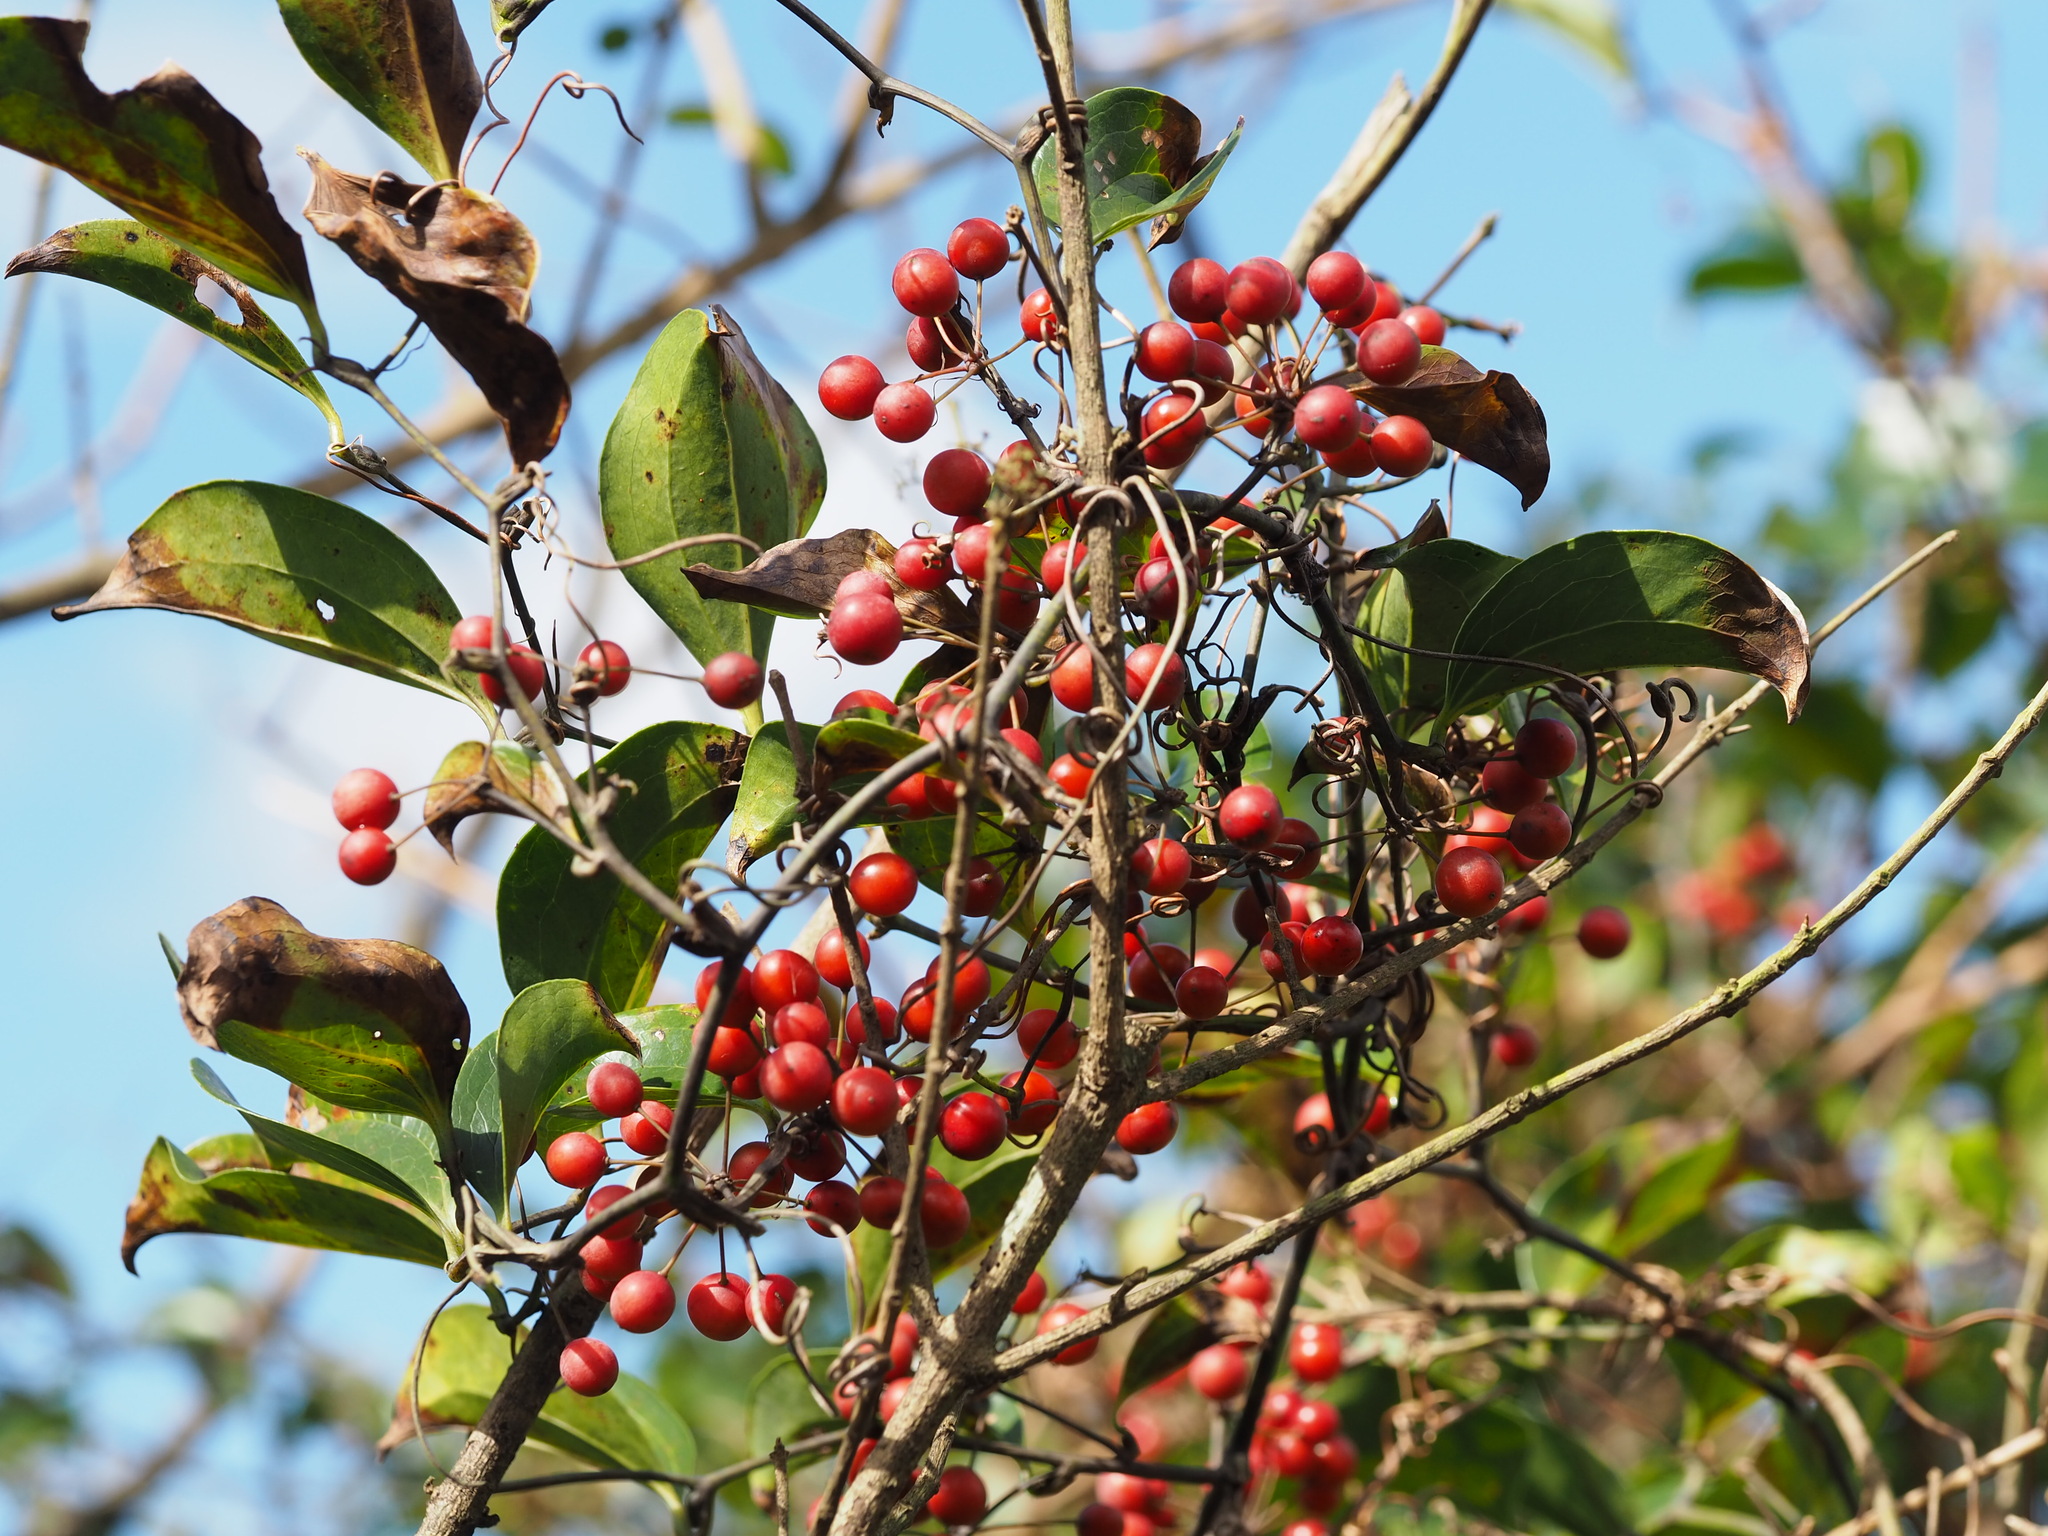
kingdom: Plantae
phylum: Tracheophyta
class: Liliopsida
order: Liliales
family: Smilacaceae
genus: Smilax
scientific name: Smilax china
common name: Chinaroot
